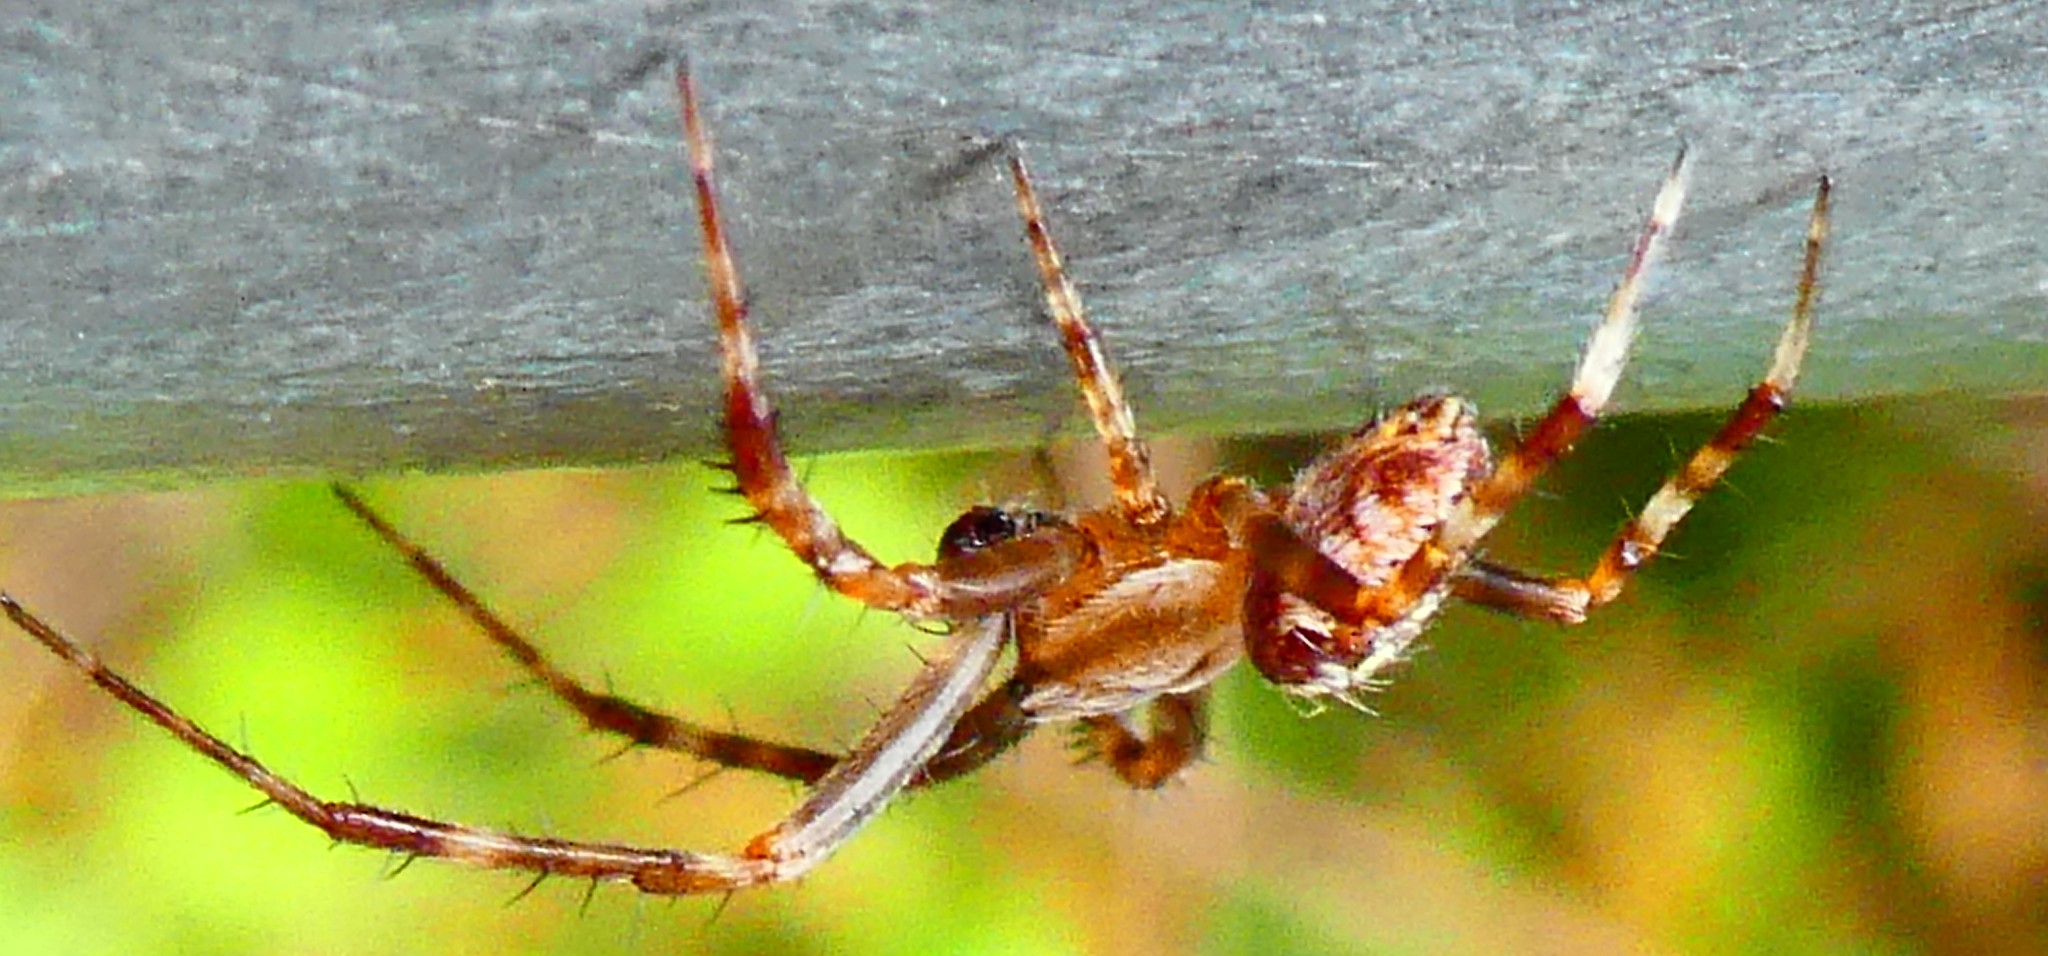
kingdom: Animalia
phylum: Arthropoda
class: Arachnida
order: Araneae
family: Araneidae
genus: Araneus
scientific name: Araneus diadematus
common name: Cross orbweaver
